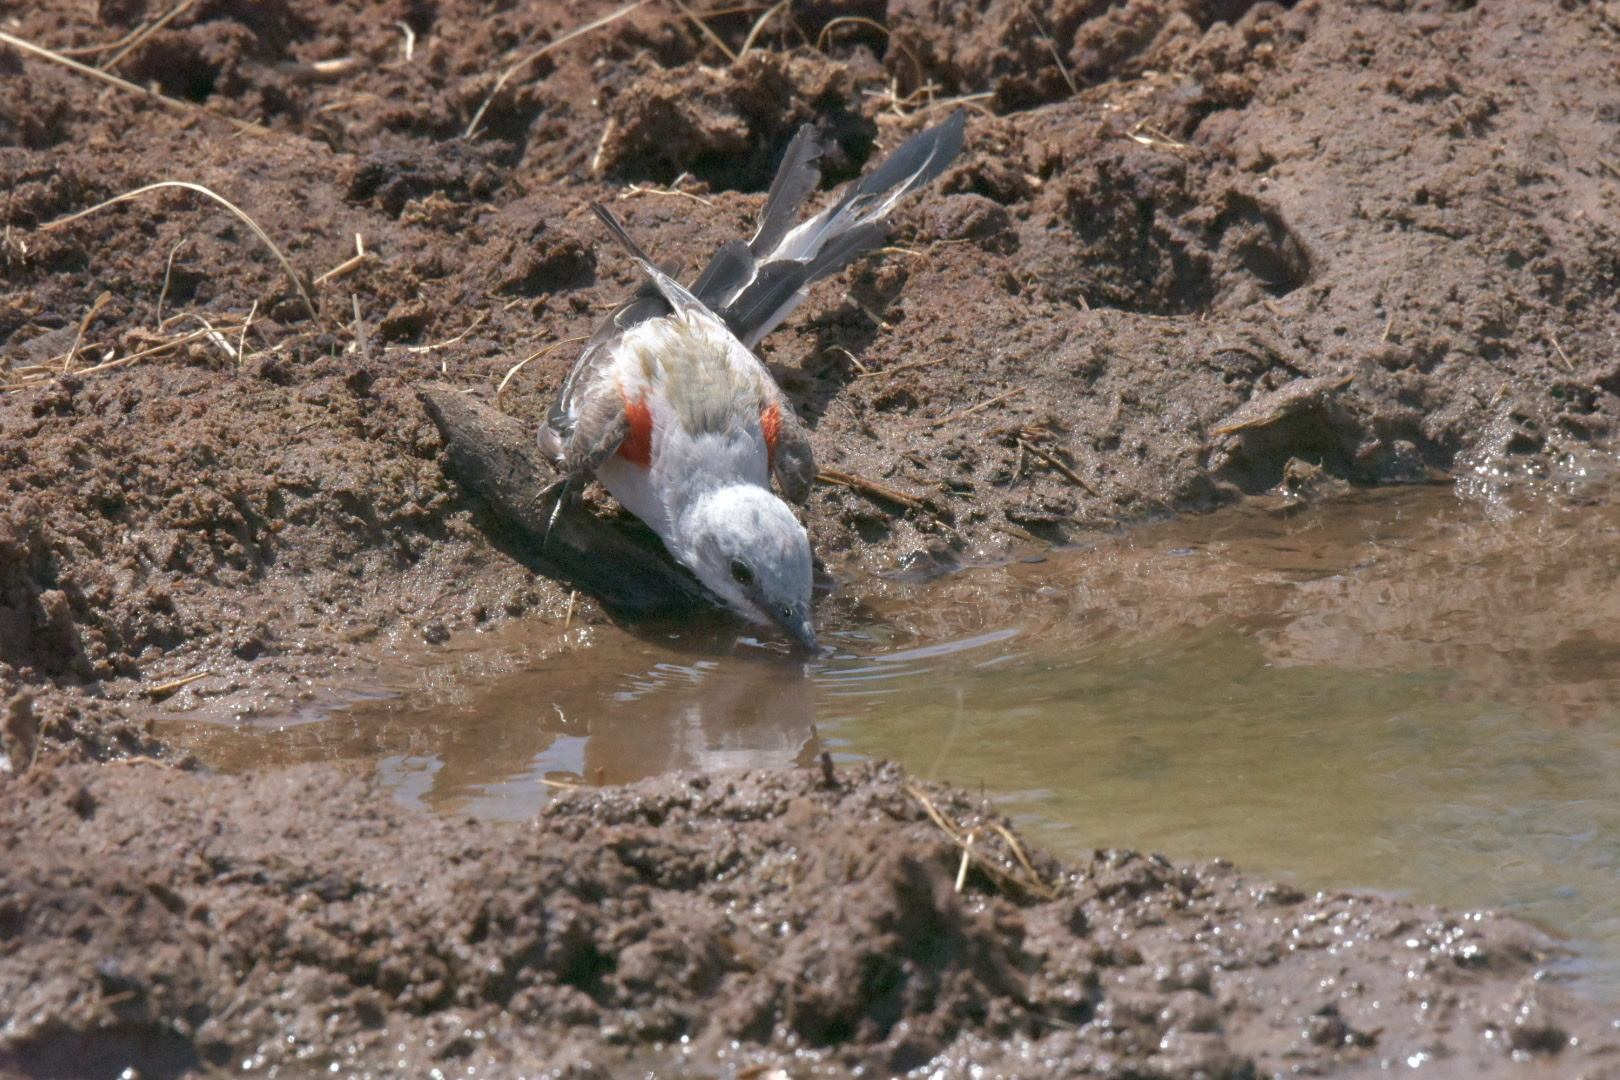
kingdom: Animalia
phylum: Chordata
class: Aves
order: Passeriformes
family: Tyrannidae
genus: Tyrannus
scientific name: Tyrannus forficatus
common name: Scissor-tailed flycatcher
